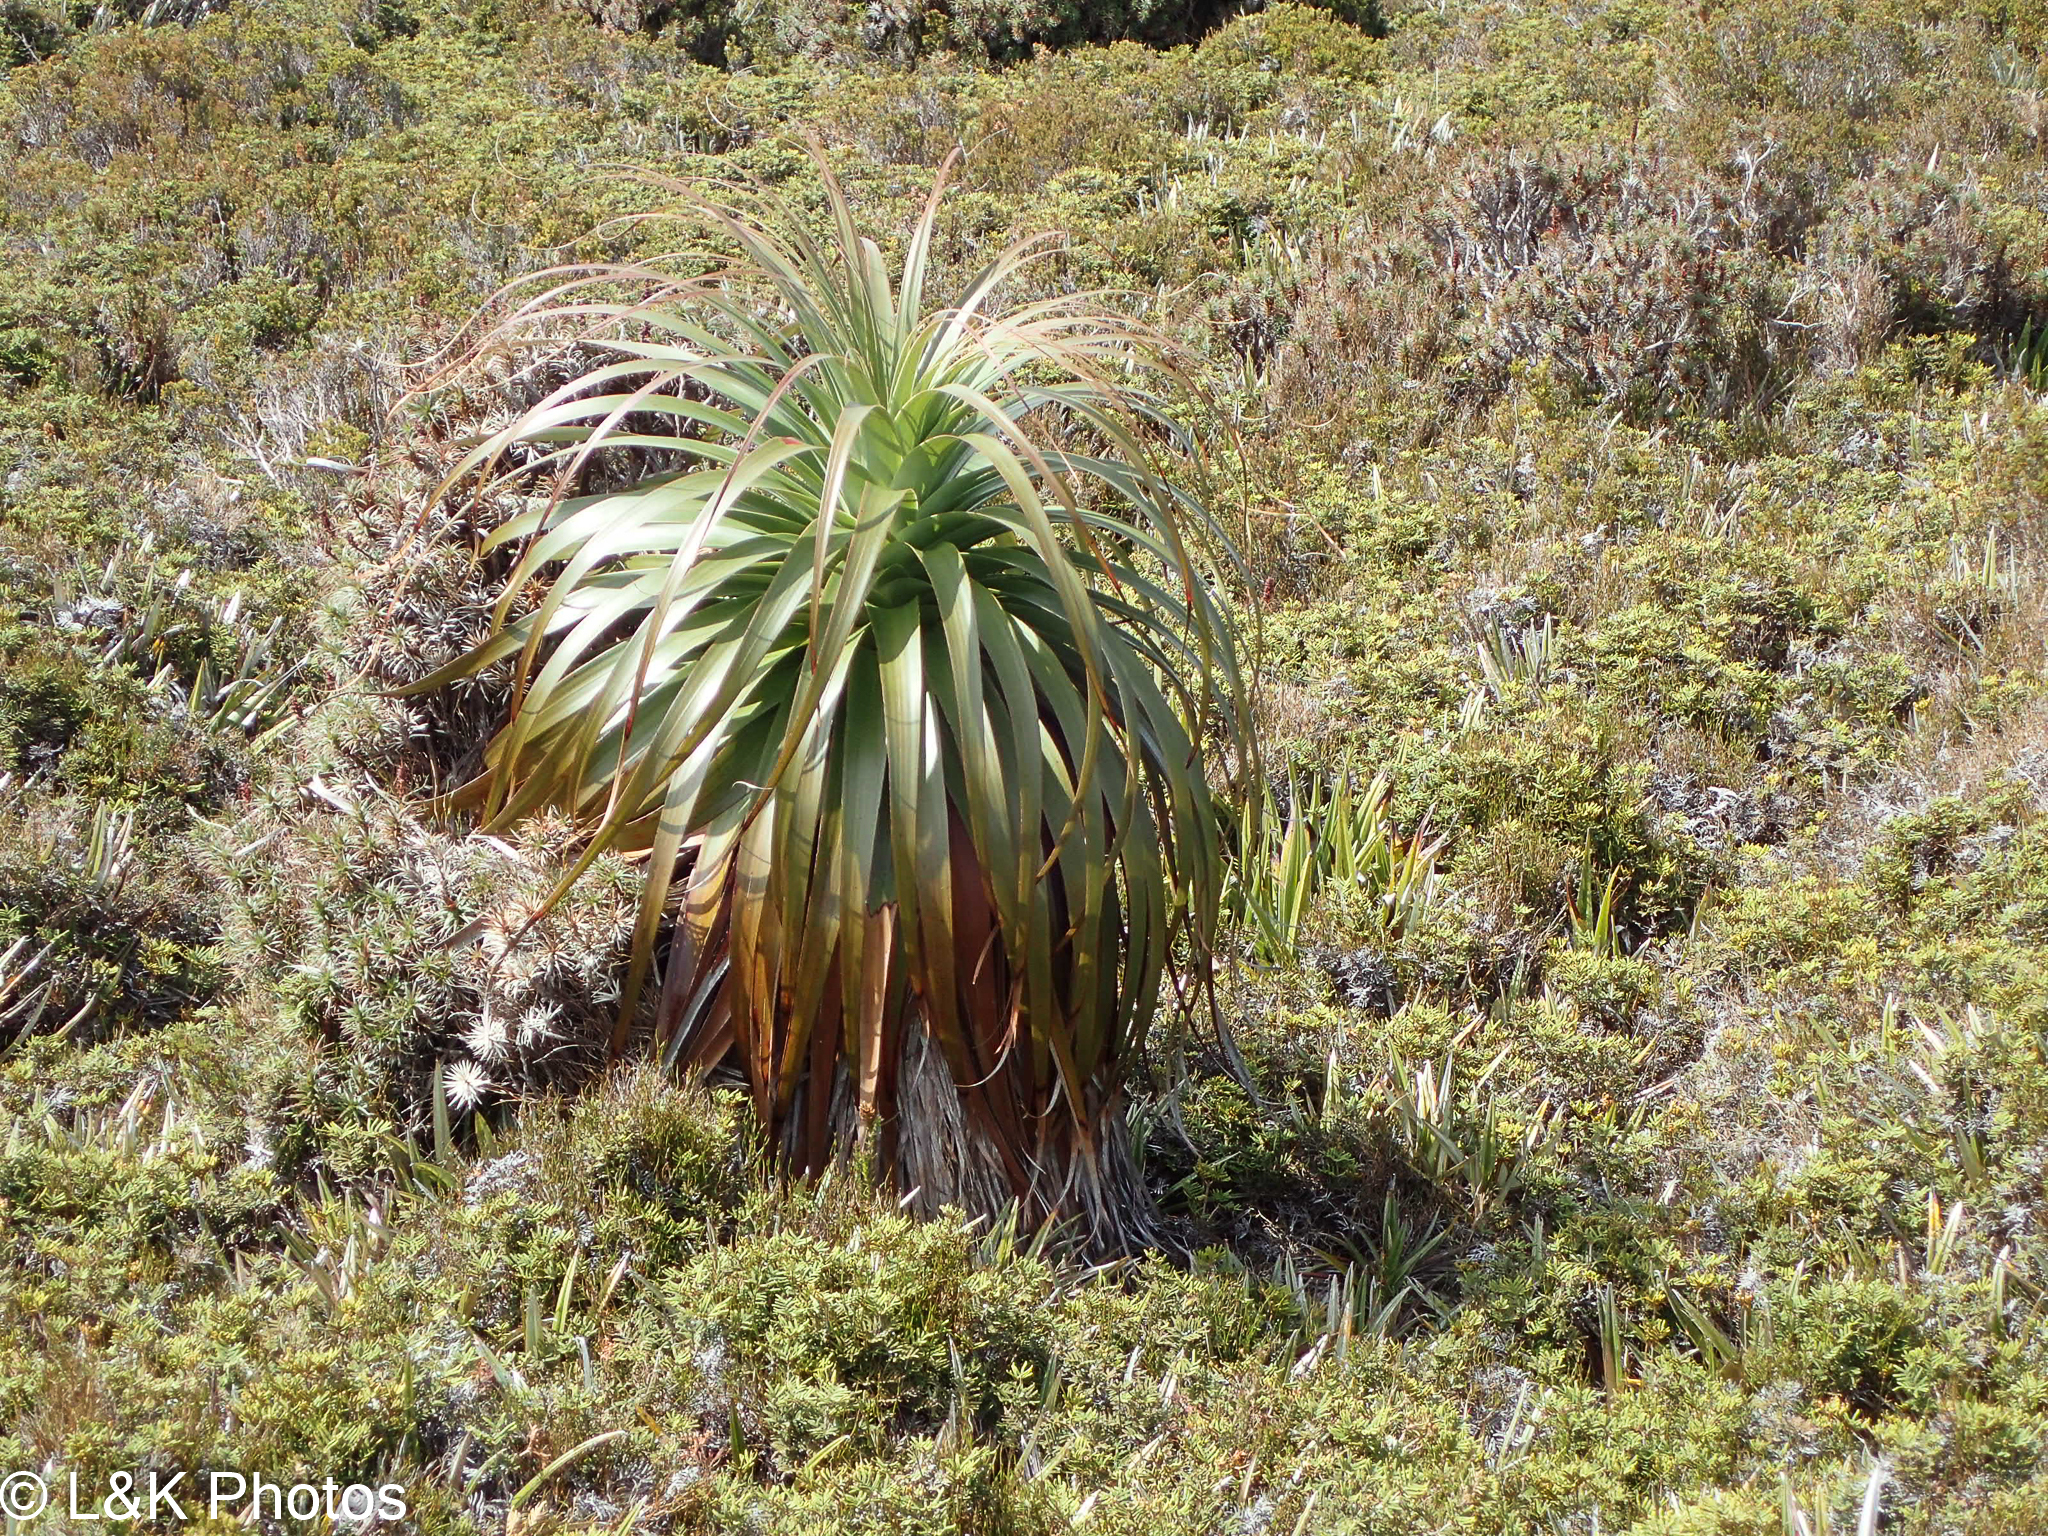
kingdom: Plantae
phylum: Tracheophyta
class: Magnoliopsida
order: Ericales
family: Ericaceae
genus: Dracophyllum
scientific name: Dracophyllum pandanifolium
